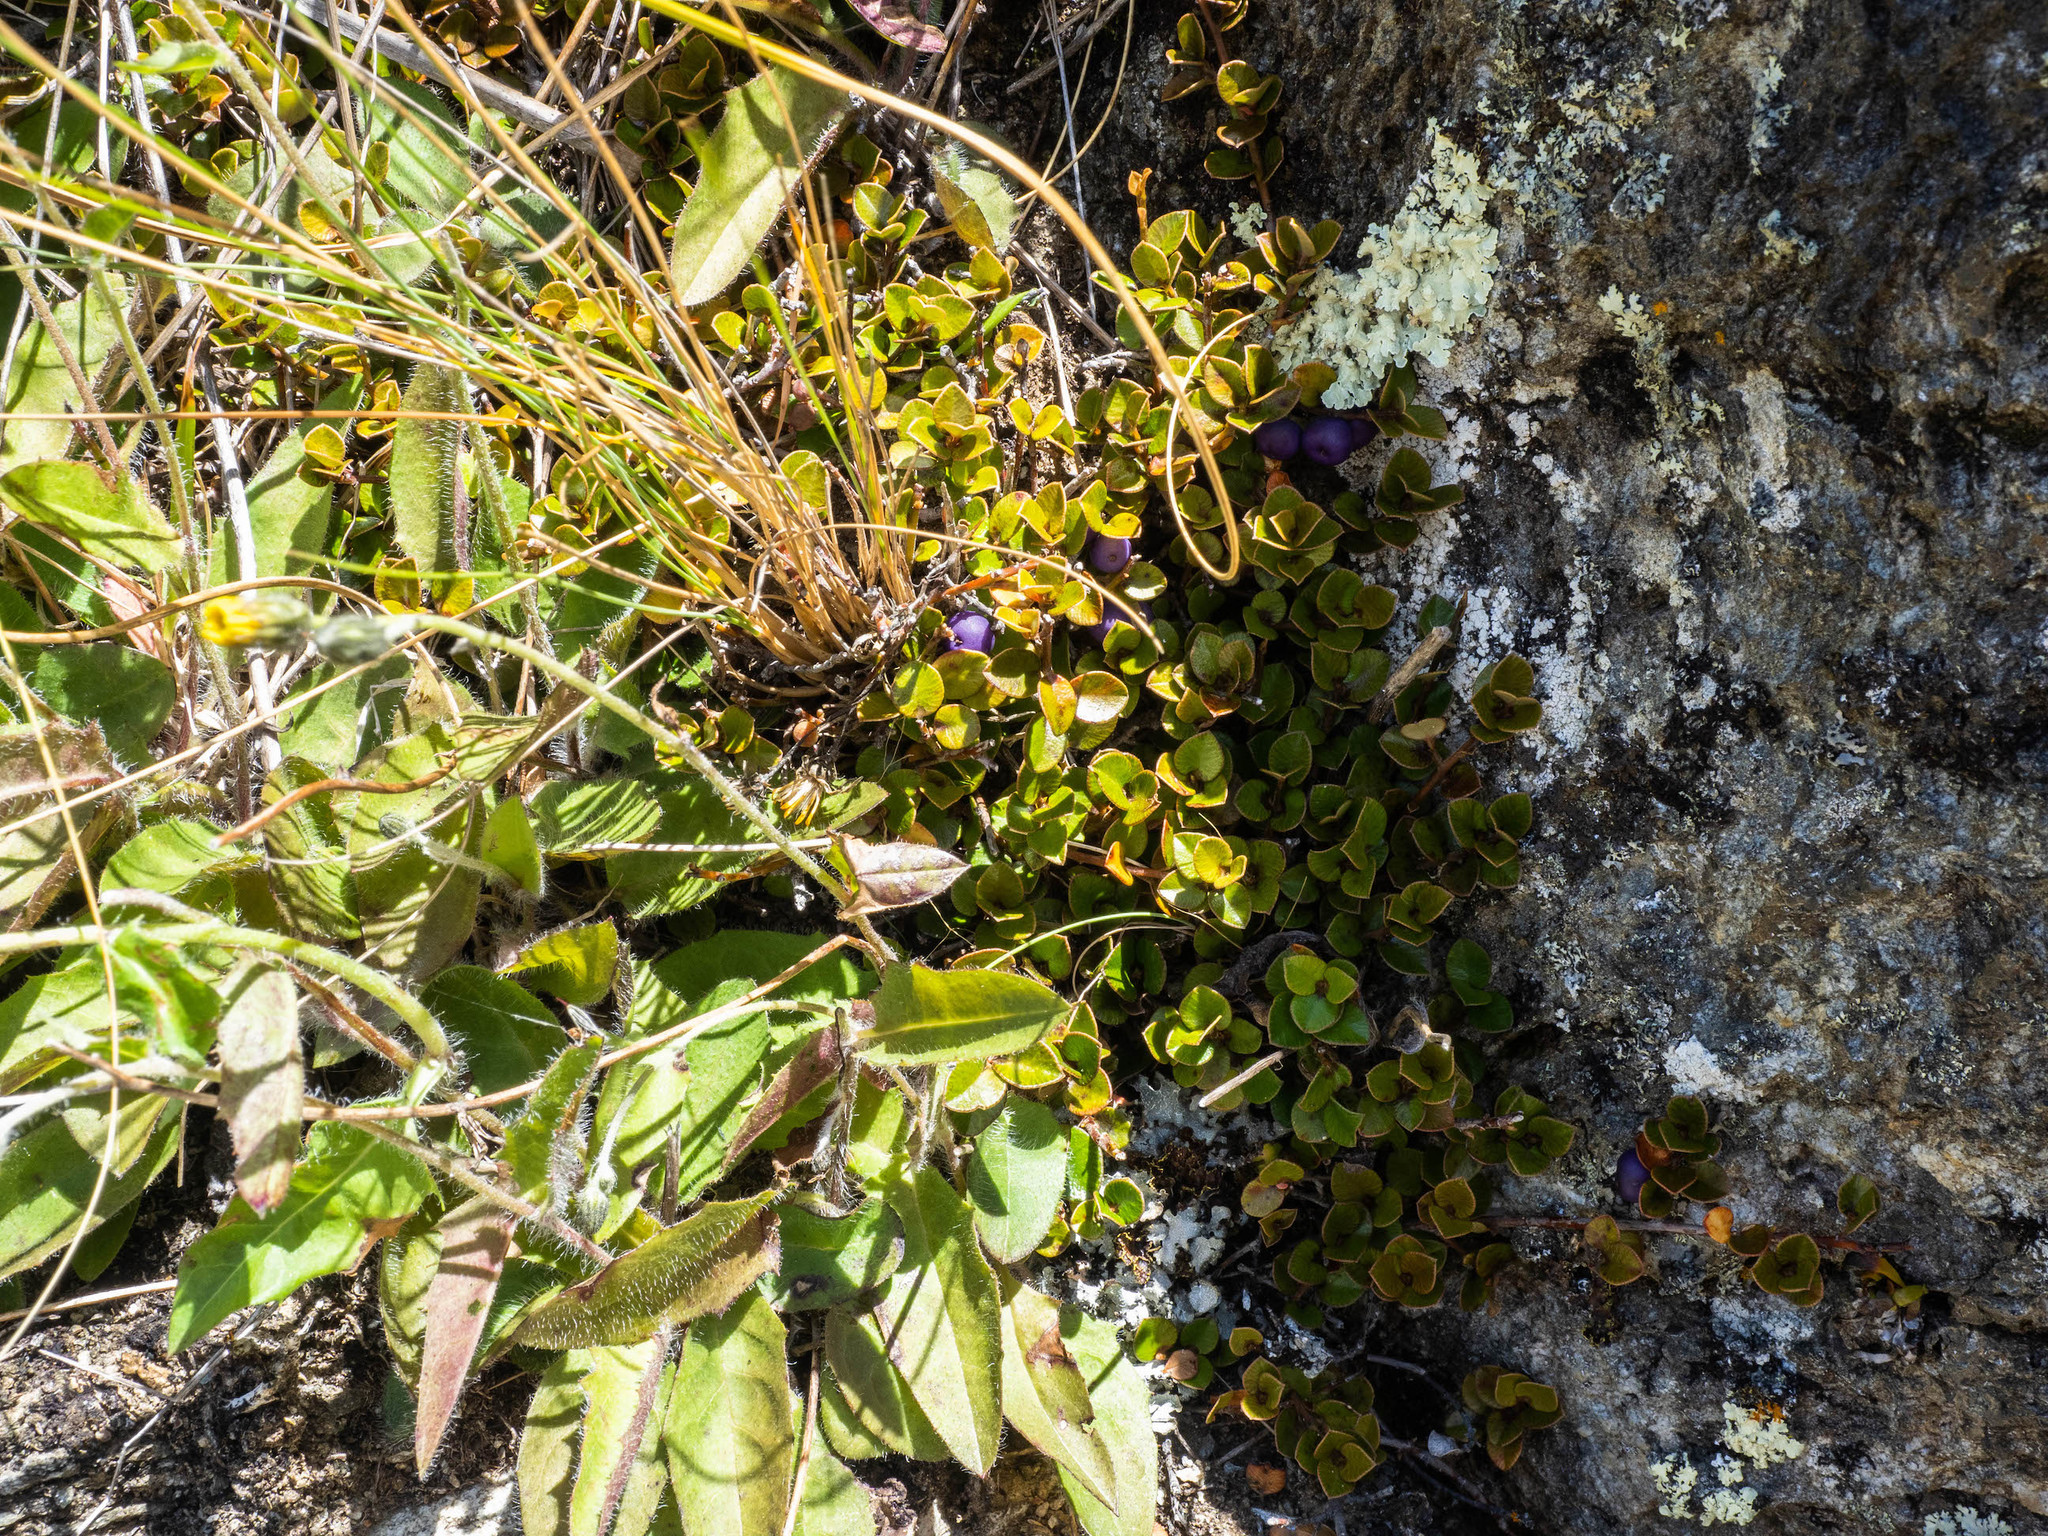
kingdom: Plantae
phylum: Tracheophyta
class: Magnoliopsida
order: Ericales
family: Primulaceae
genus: Myrsine
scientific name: Myrsine nummularia
